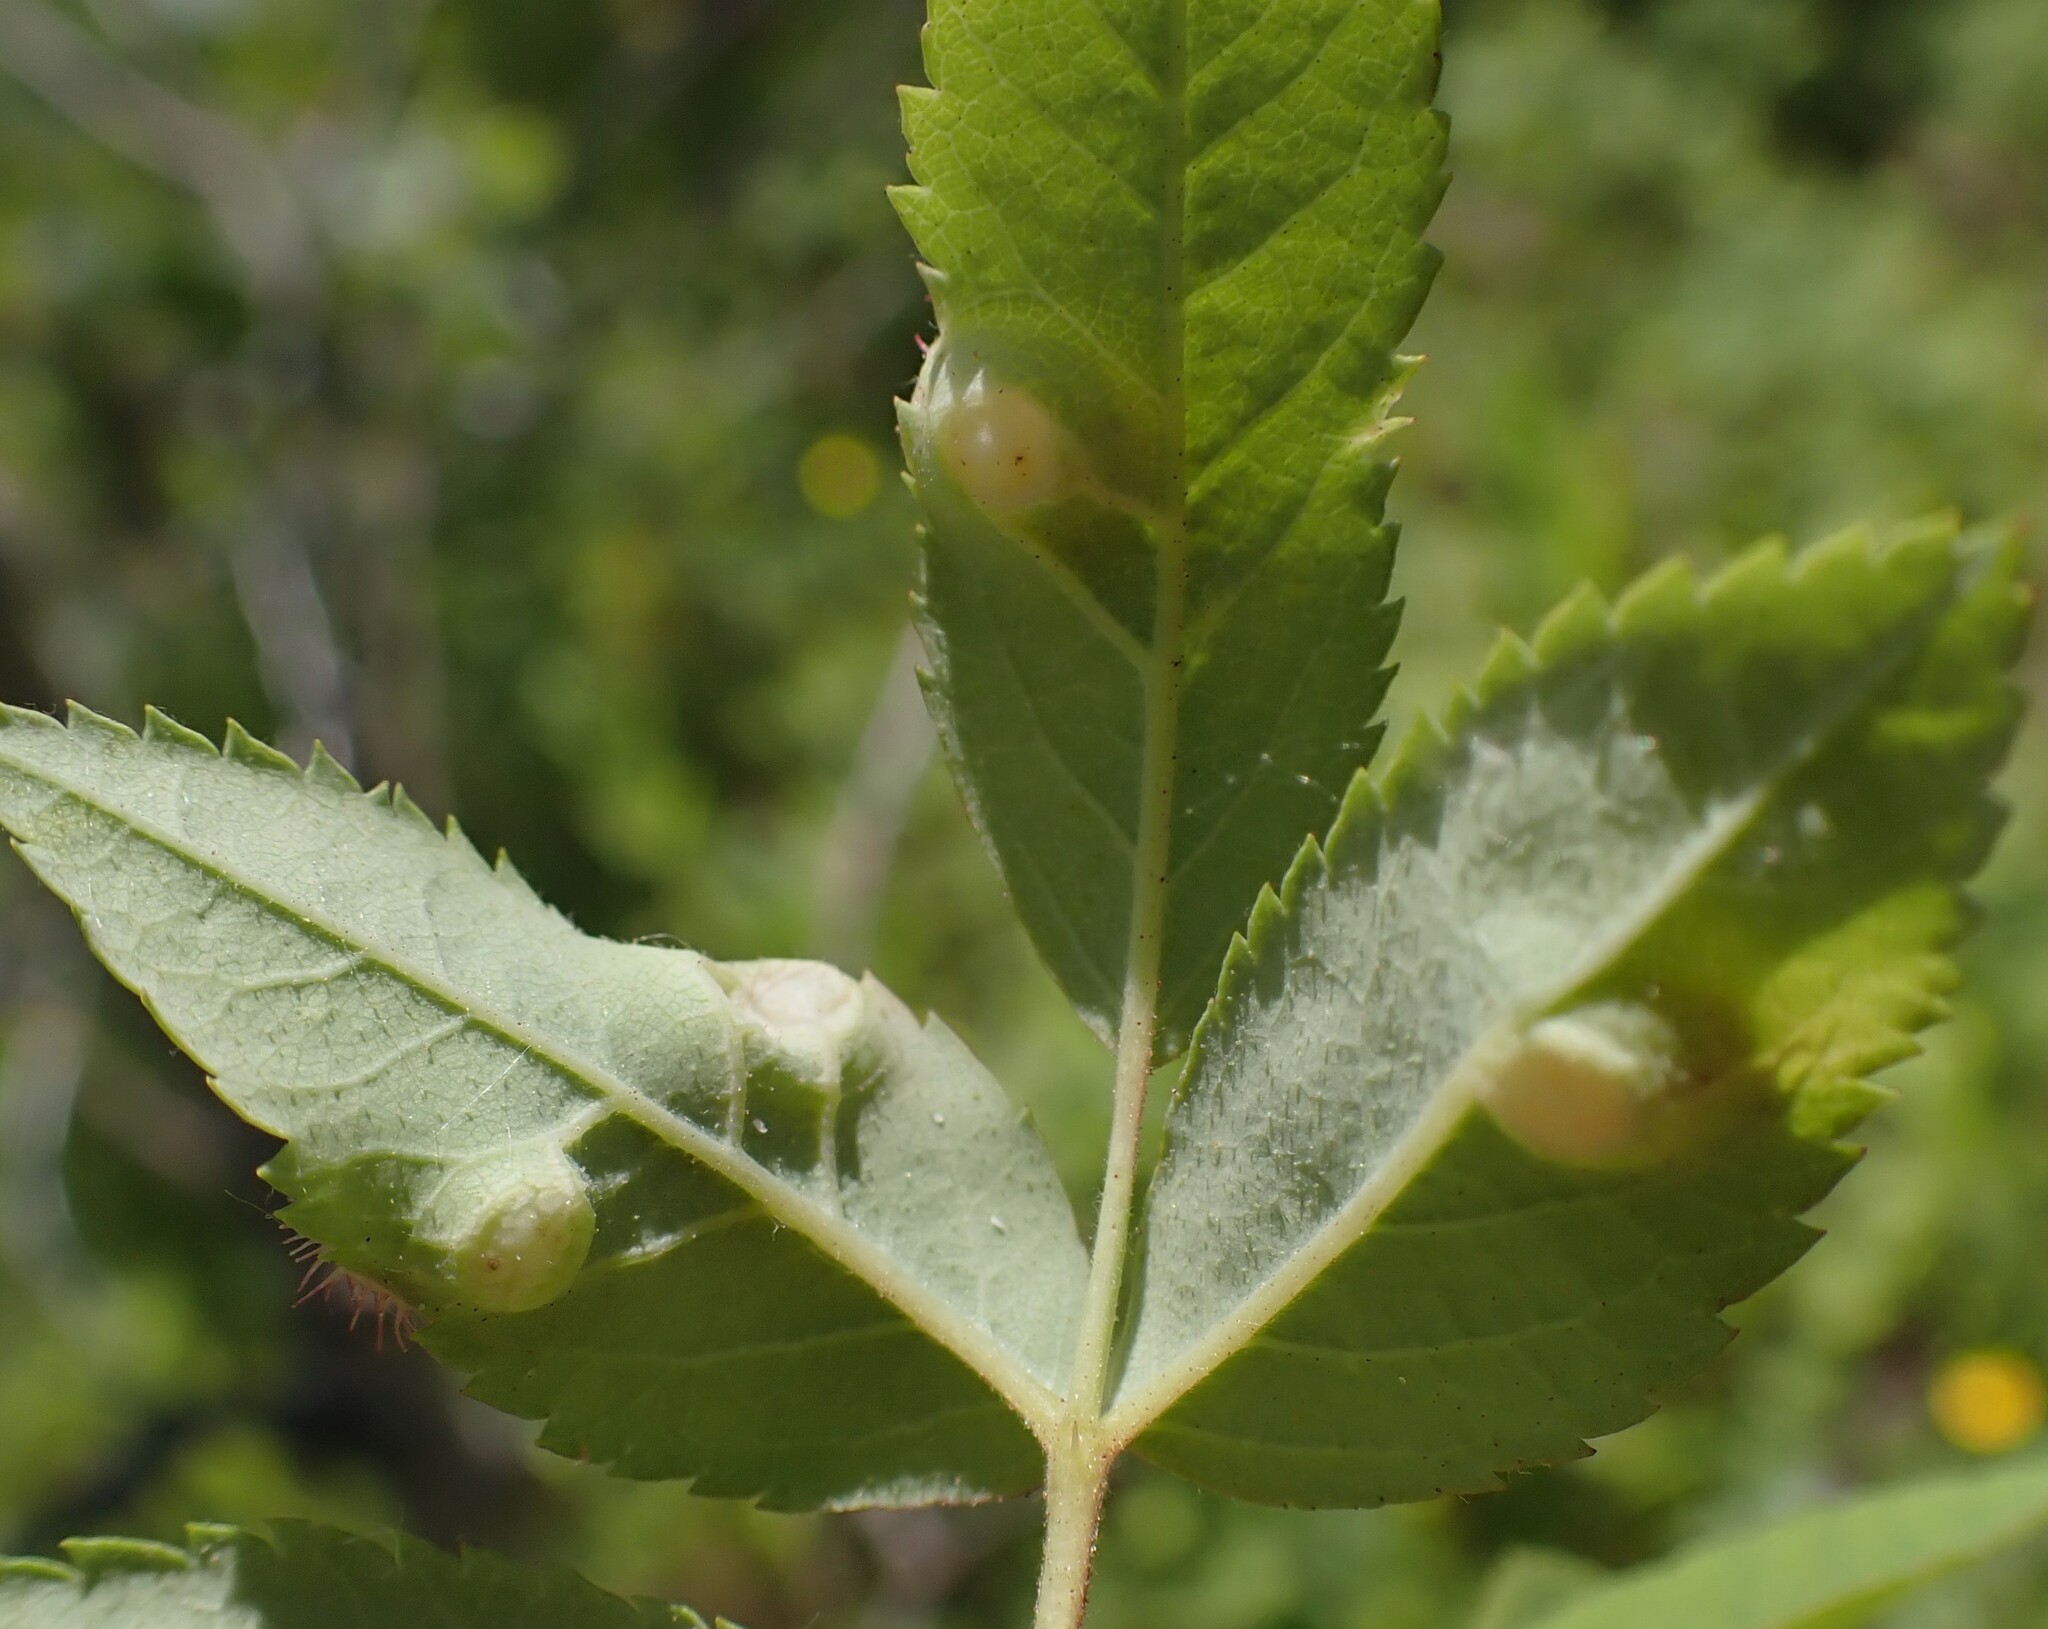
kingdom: Animalia
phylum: Arthropoda
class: Insecta
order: Hymenoptera
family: Cynipidae
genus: Diplolepis
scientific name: Diplolepis polita
